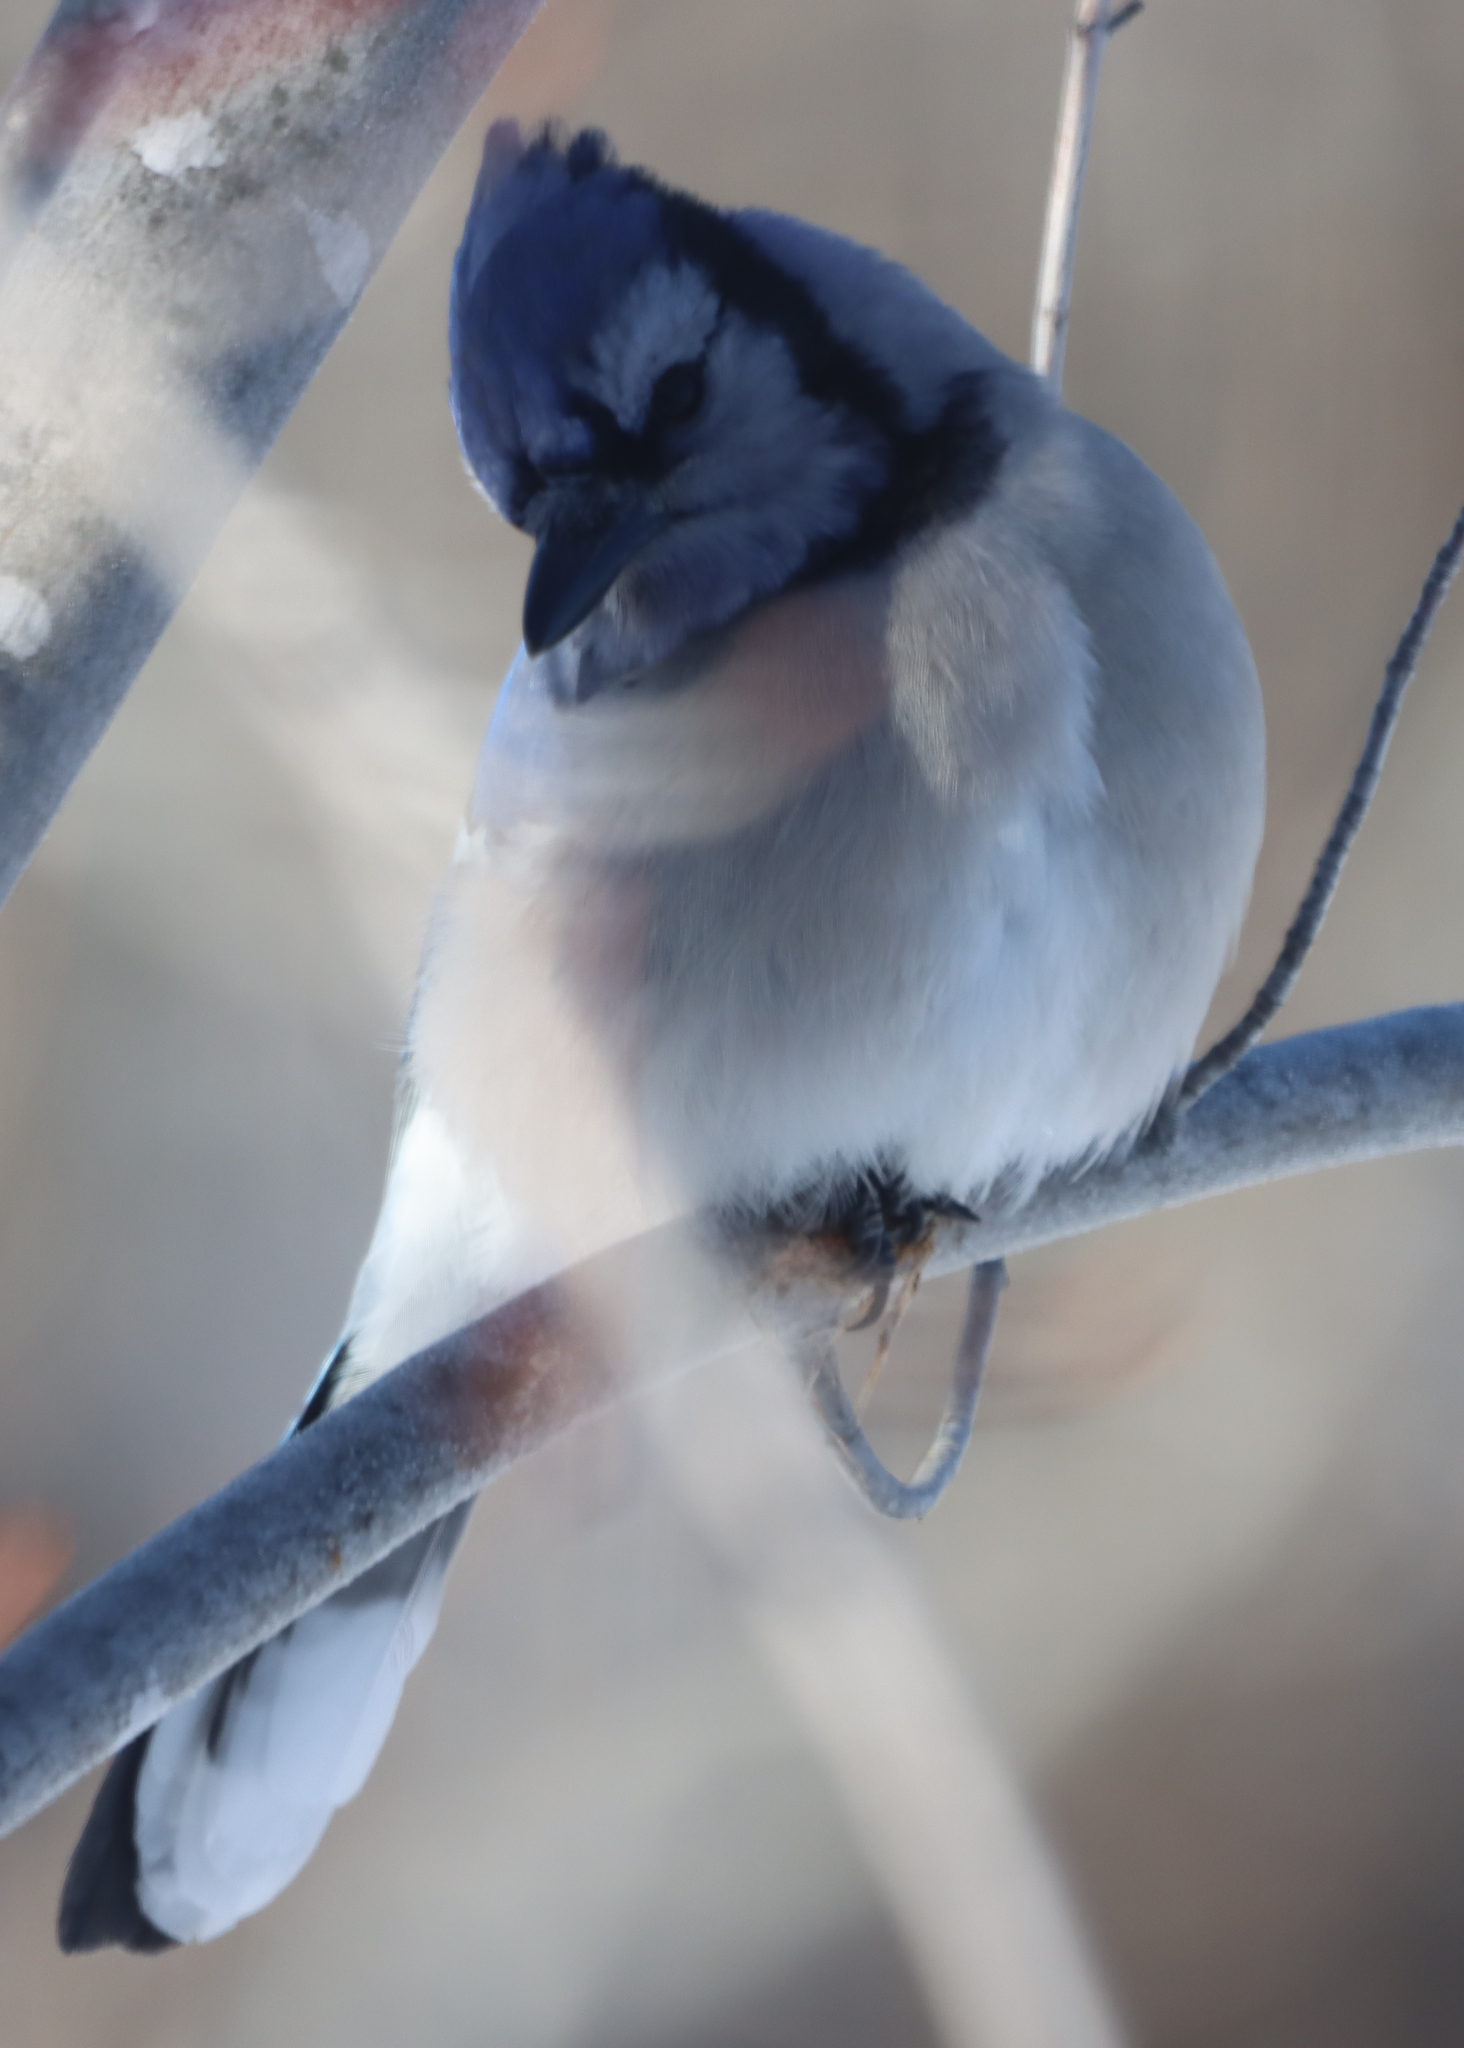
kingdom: Animalia
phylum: Chordata
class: Aves
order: Passeriformes
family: Corvidae
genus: Cyanocitta
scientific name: Cyanocitta cristata
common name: Blue jay
